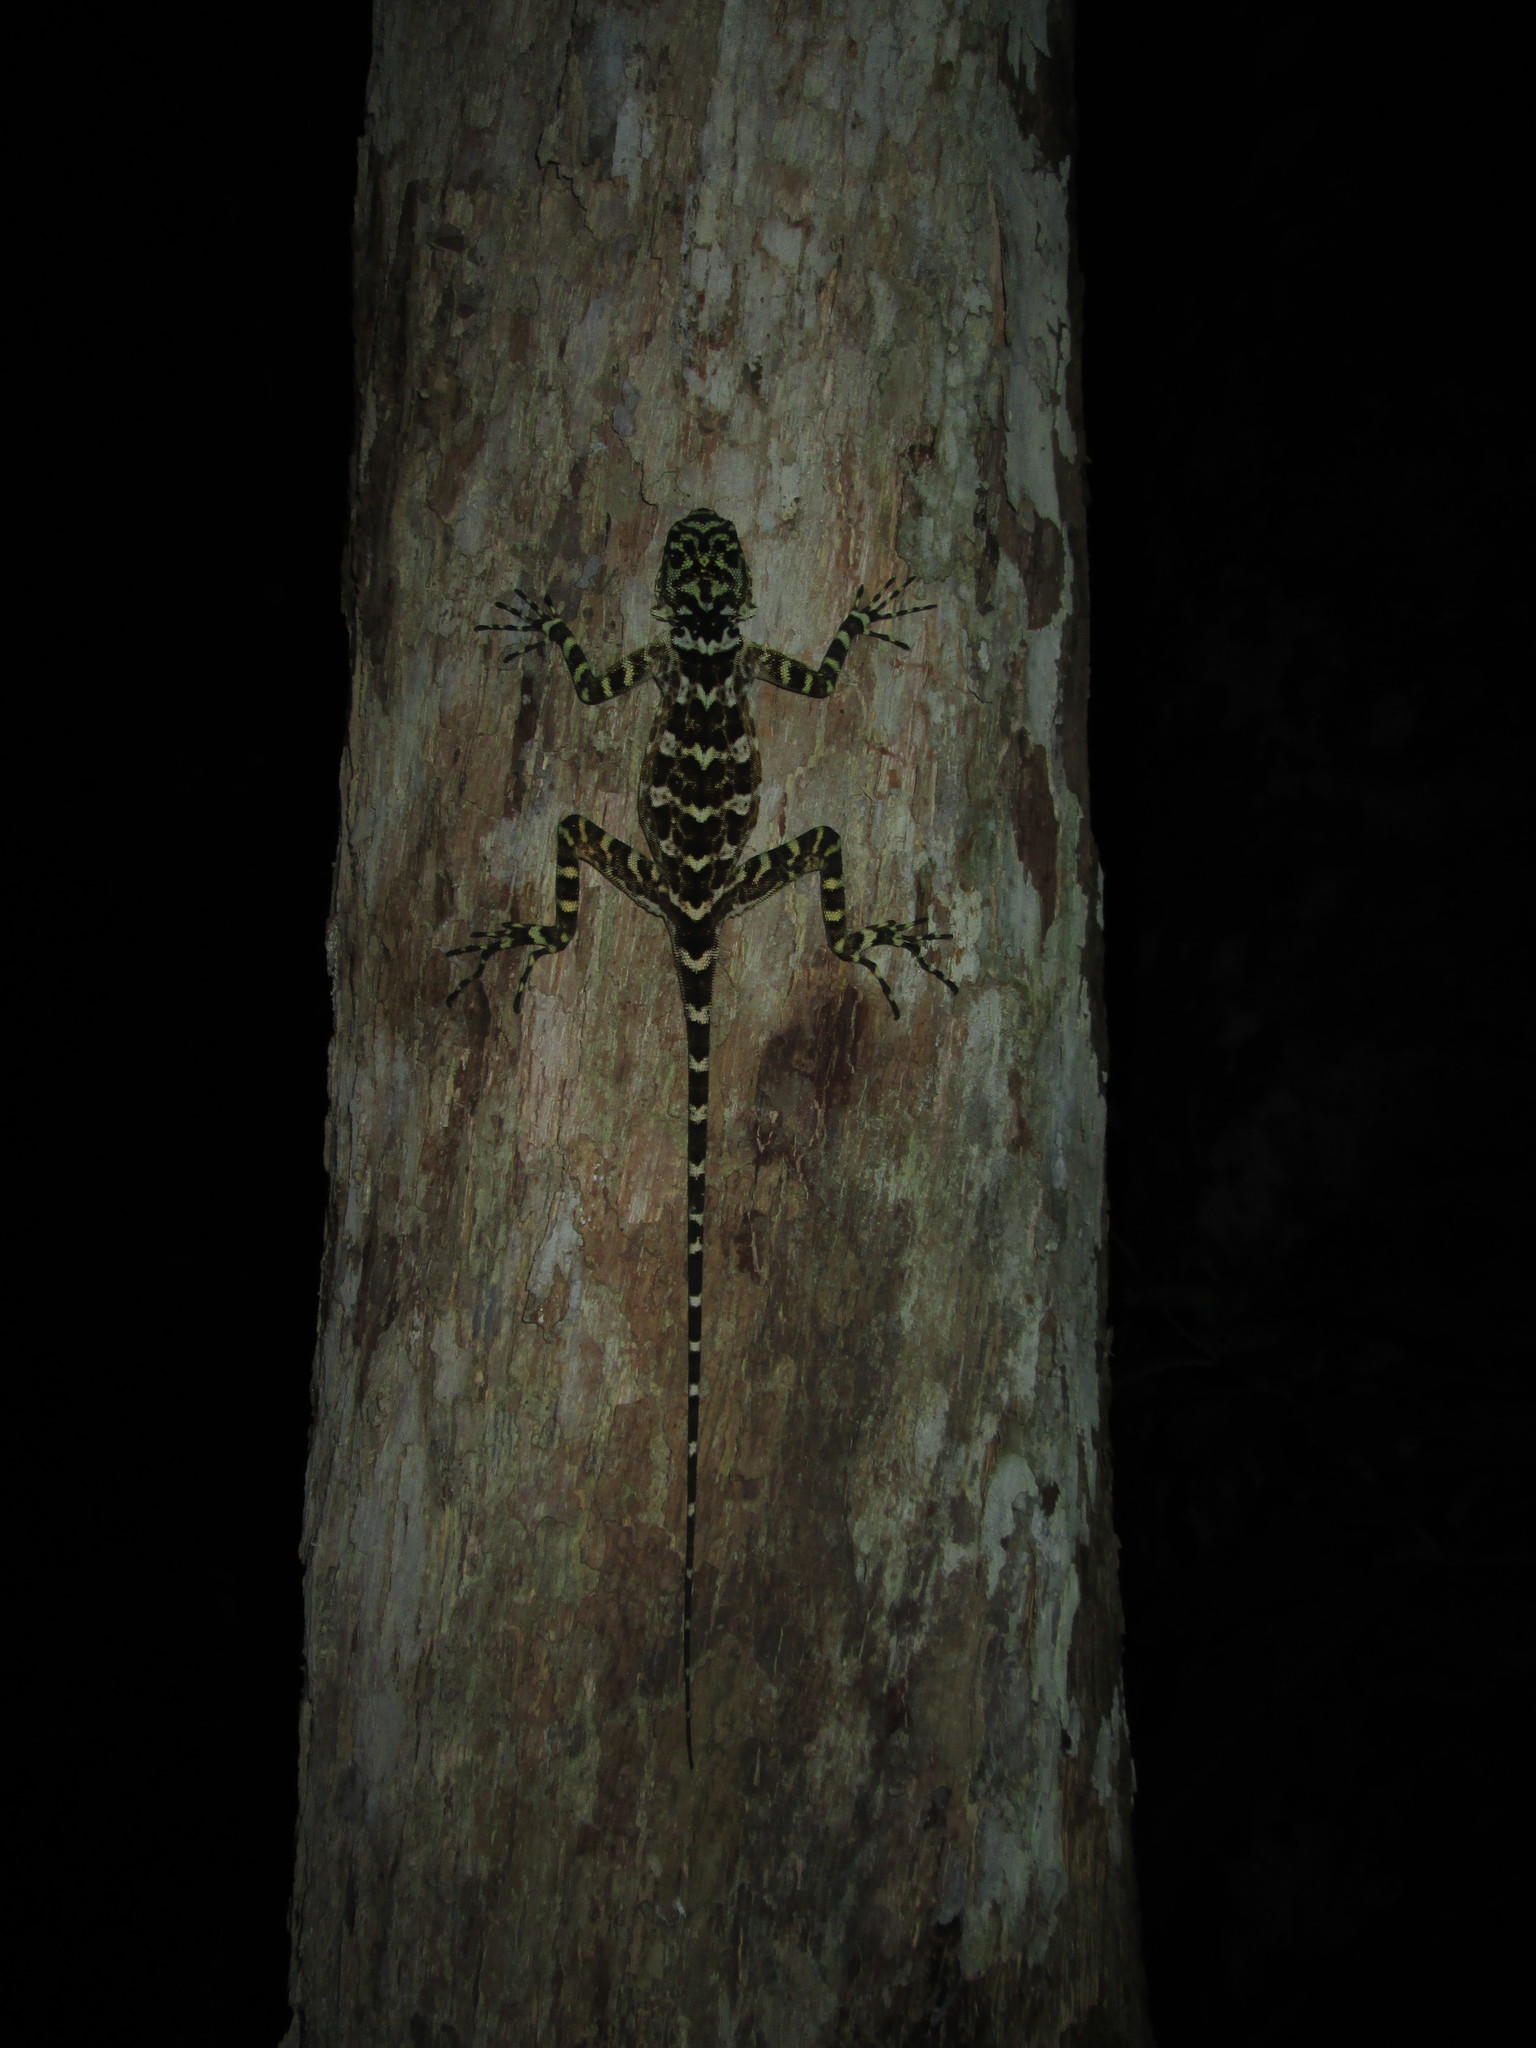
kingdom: Animalia
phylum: Chordata
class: Squamata
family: Tropiduridae
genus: Plica
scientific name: Plica plica
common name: Tree runner
